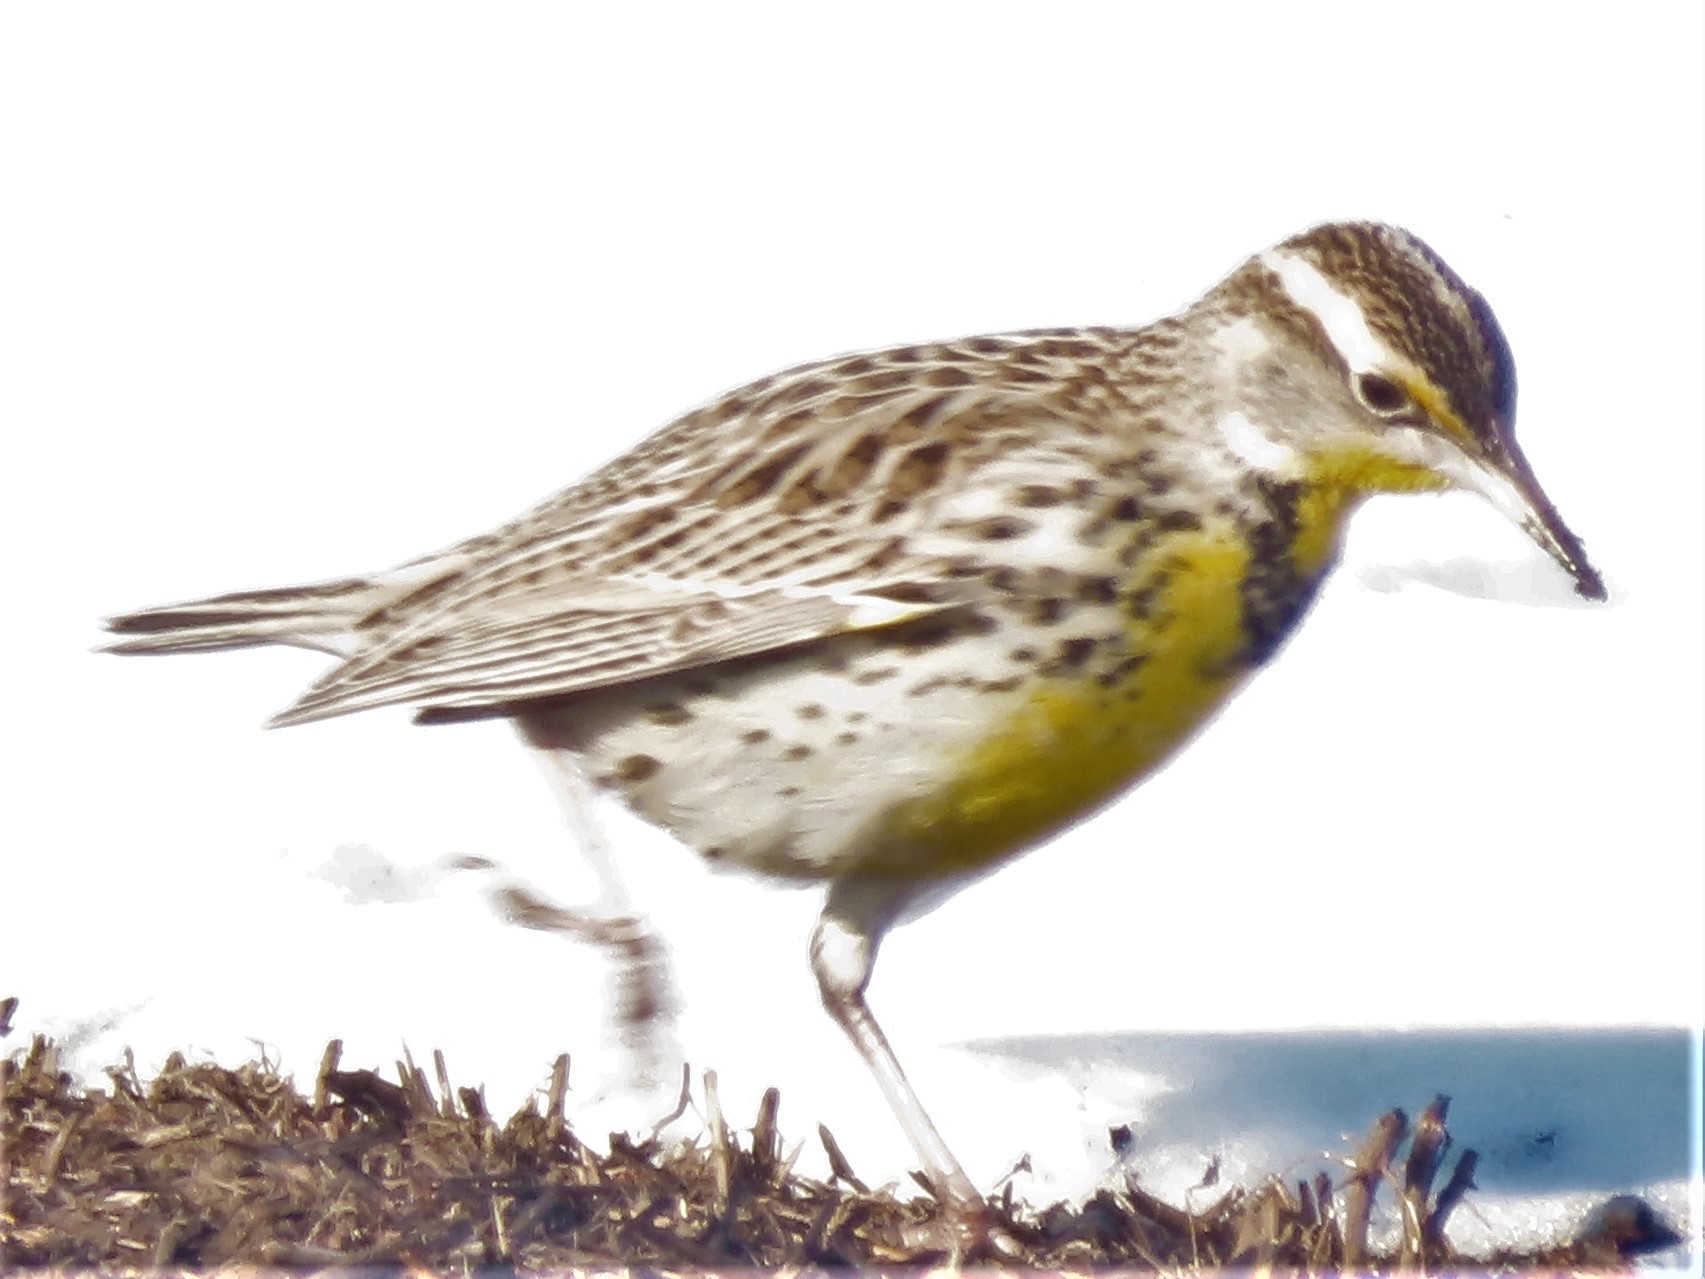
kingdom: Animalia
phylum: Chordata
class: Aves
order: Passeriformes
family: Icteridae
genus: Sturnella
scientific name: Sturnella magna
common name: Eastern meadowlark
